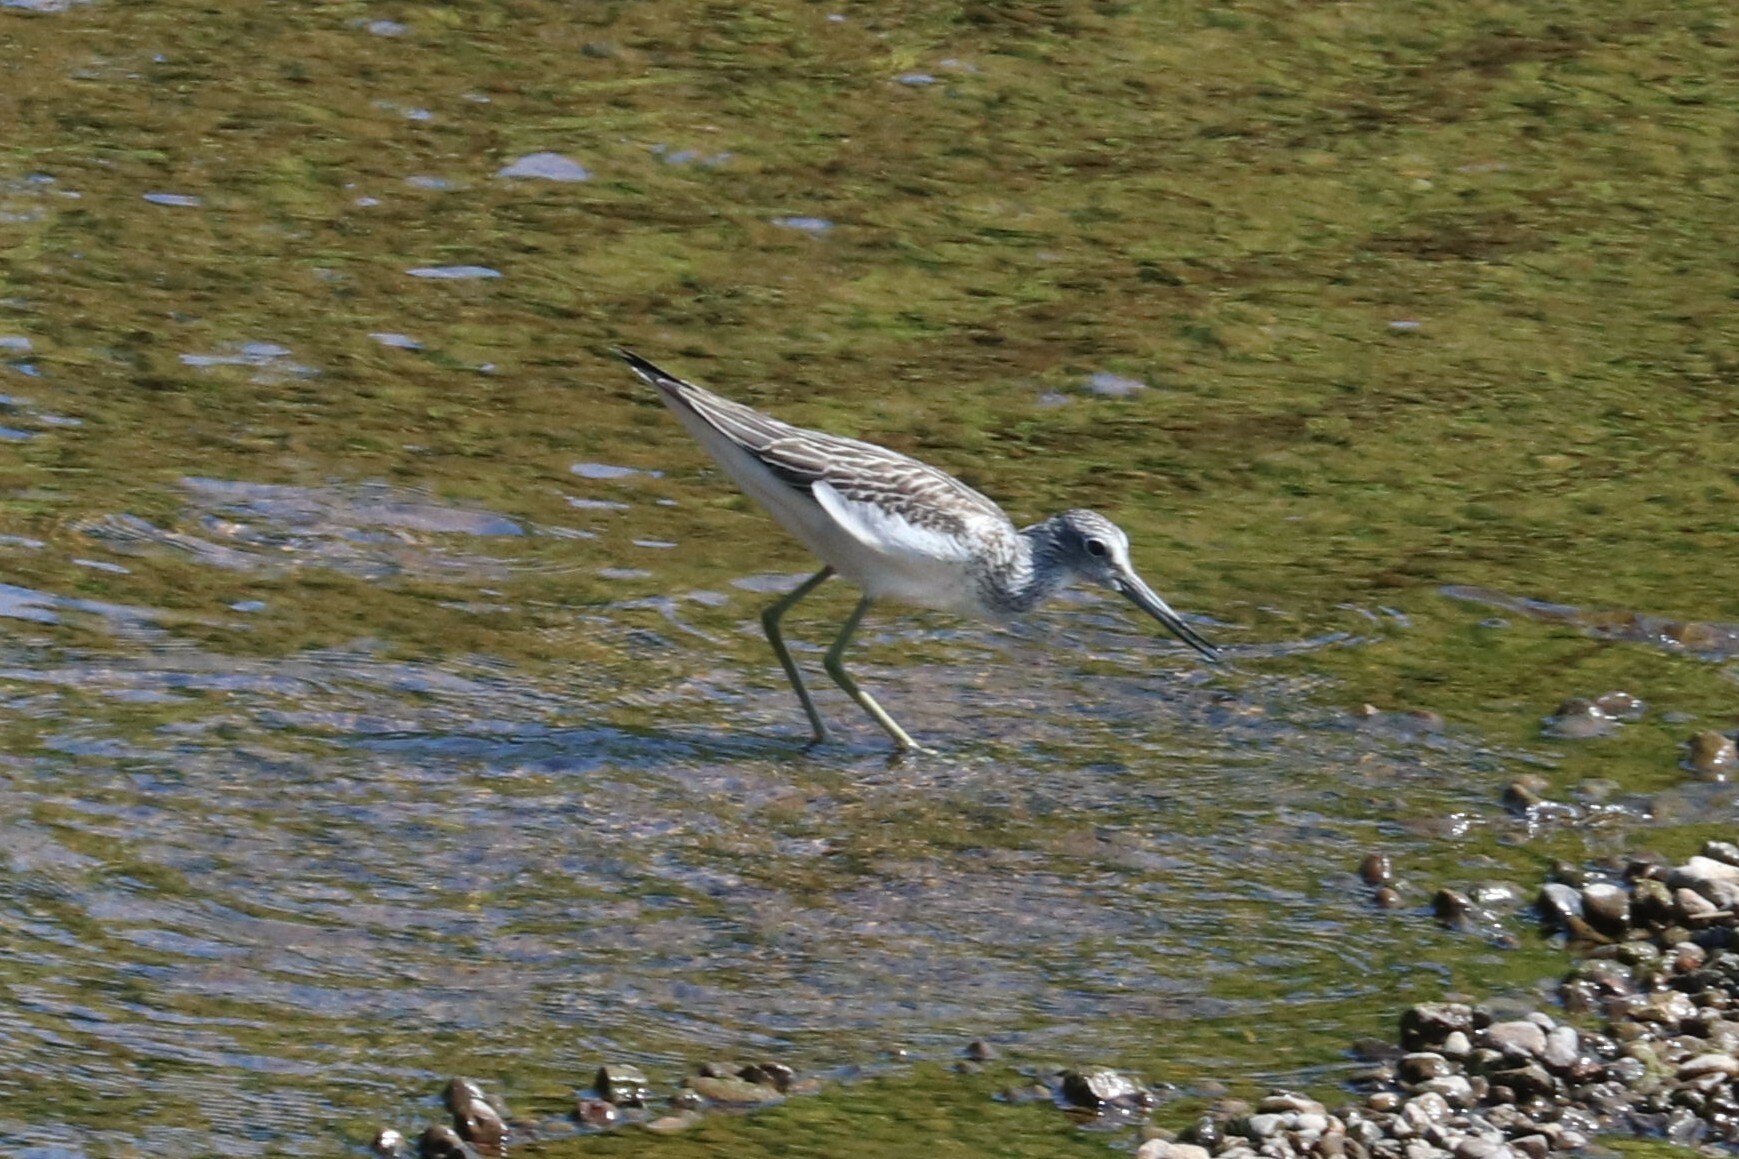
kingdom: Animalia
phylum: Chordata
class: Aves
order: Charadriiformes
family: Scolopacidae
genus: Tringa
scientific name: Tringa nebularia
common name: Common greenshank
